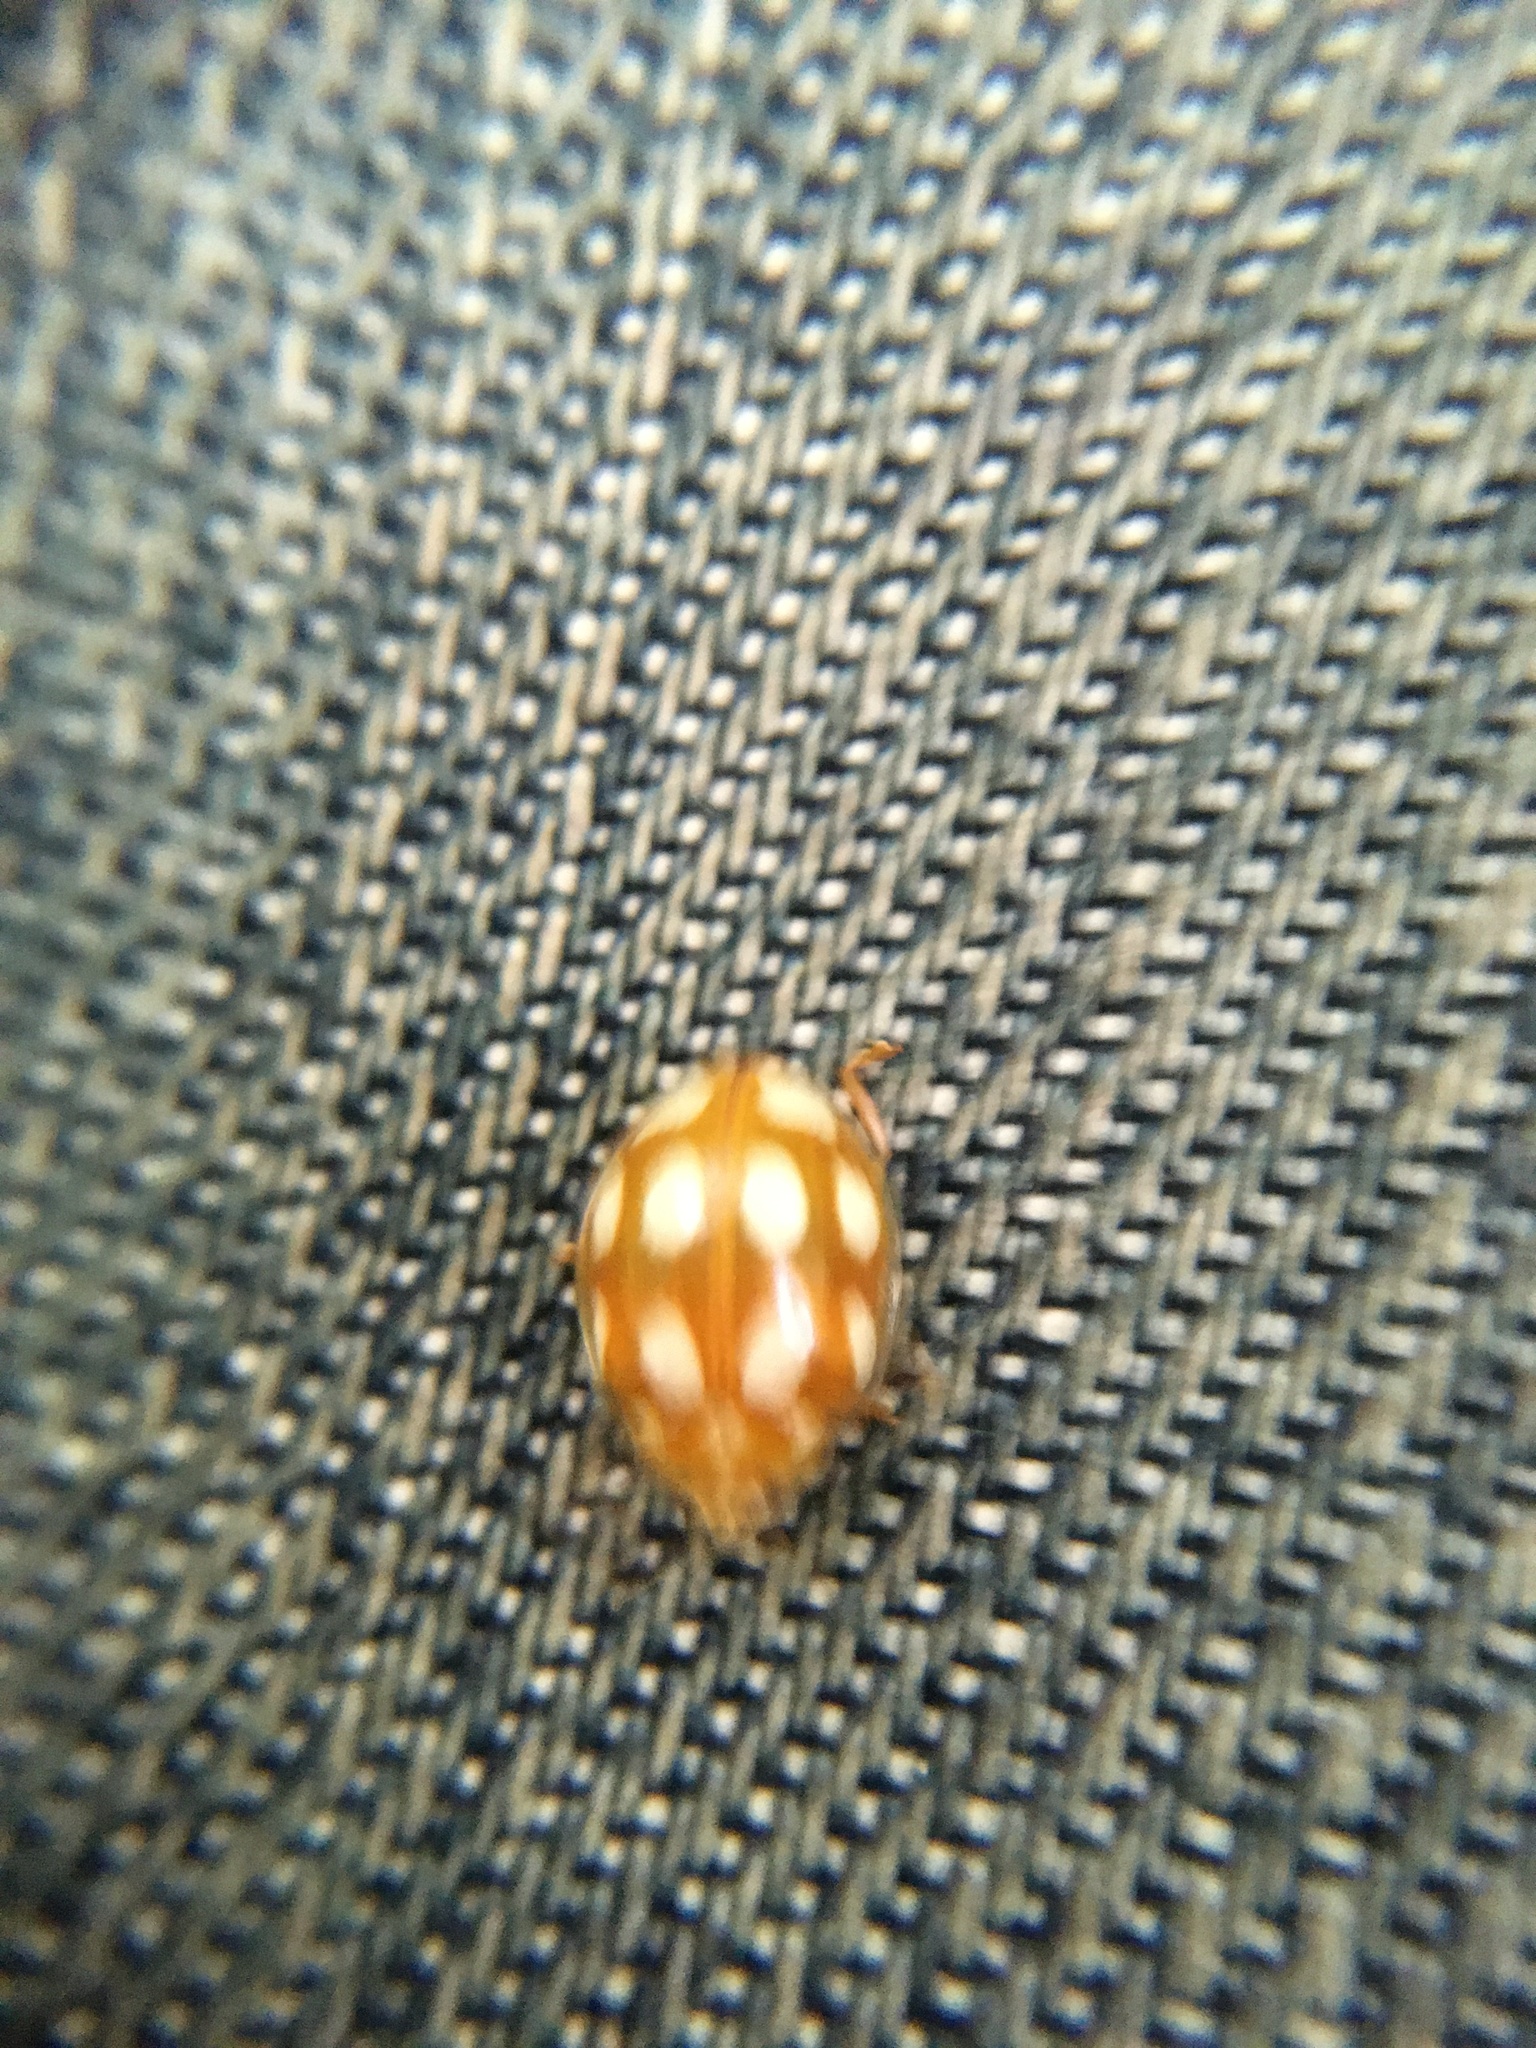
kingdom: Animalia
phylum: Arthropoda
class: Insecta
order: Coleoptera
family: Coccinellidae
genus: Calvia
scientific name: Calvia decemguttata
